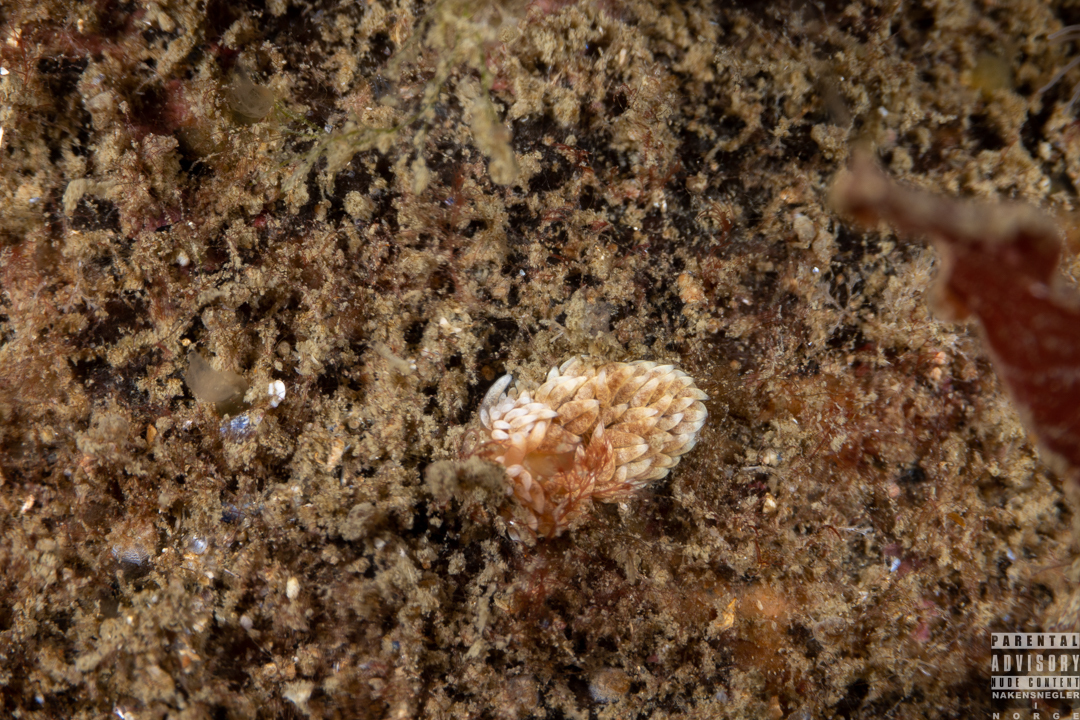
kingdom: Animalia
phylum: Mollusca
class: Gastropoda
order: Nudibranchia
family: Aeolidiidae
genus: Aeolidiella
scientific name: Aeolidiella glauca
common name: Orange-brown aeolid
